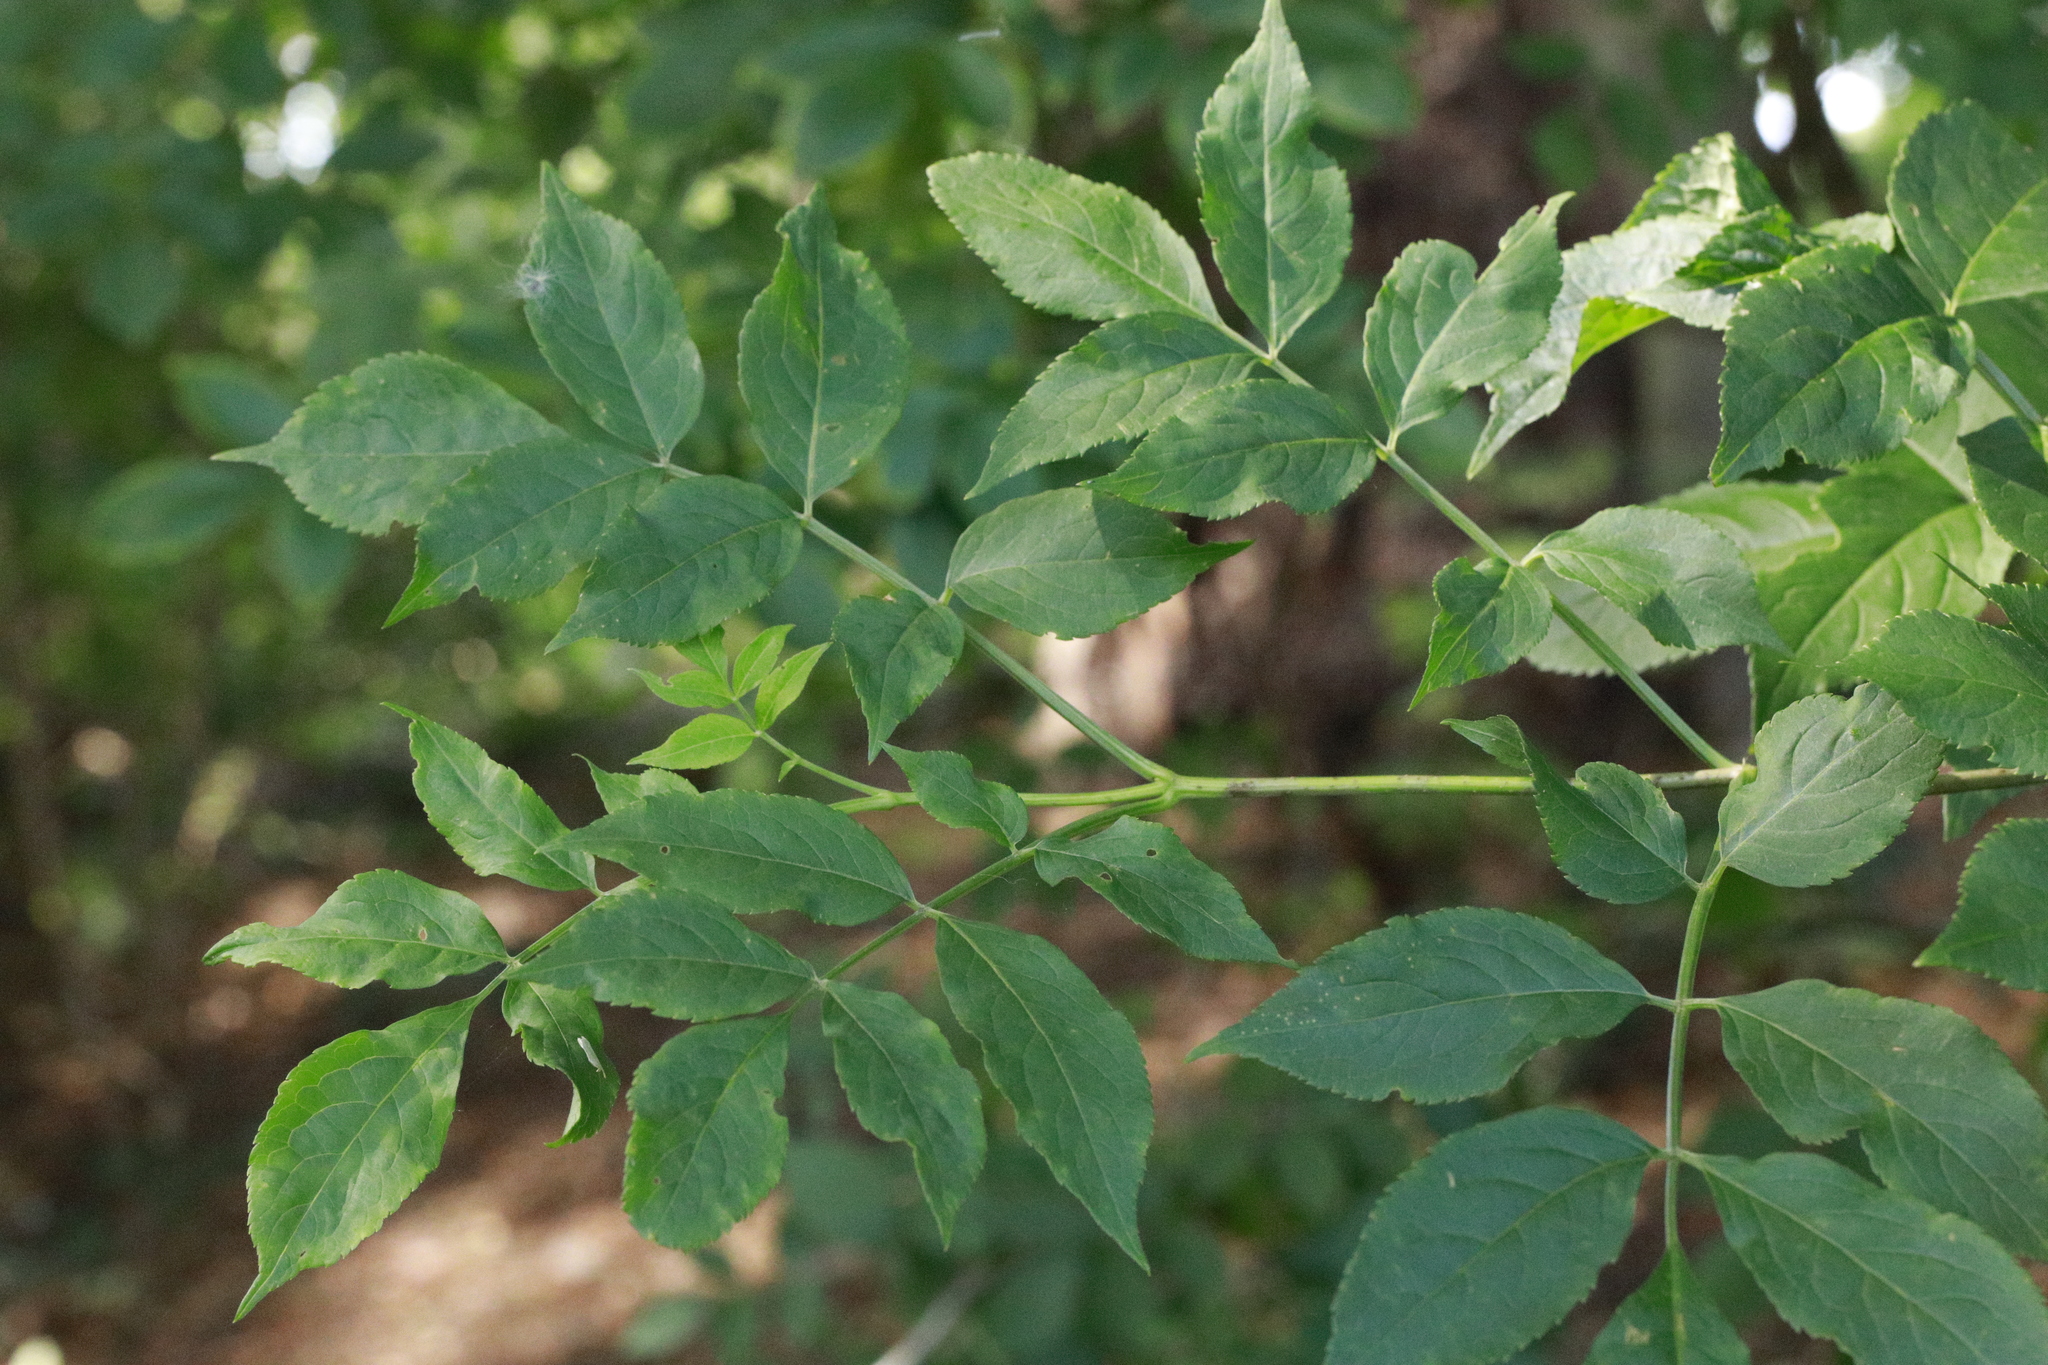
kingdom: Plantae
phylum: Tracheophyta
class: Magnoliopsida
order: Dipsacales
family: Viburnaceae
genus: Sambucus
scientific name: Sambucus nigra
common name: Elder
